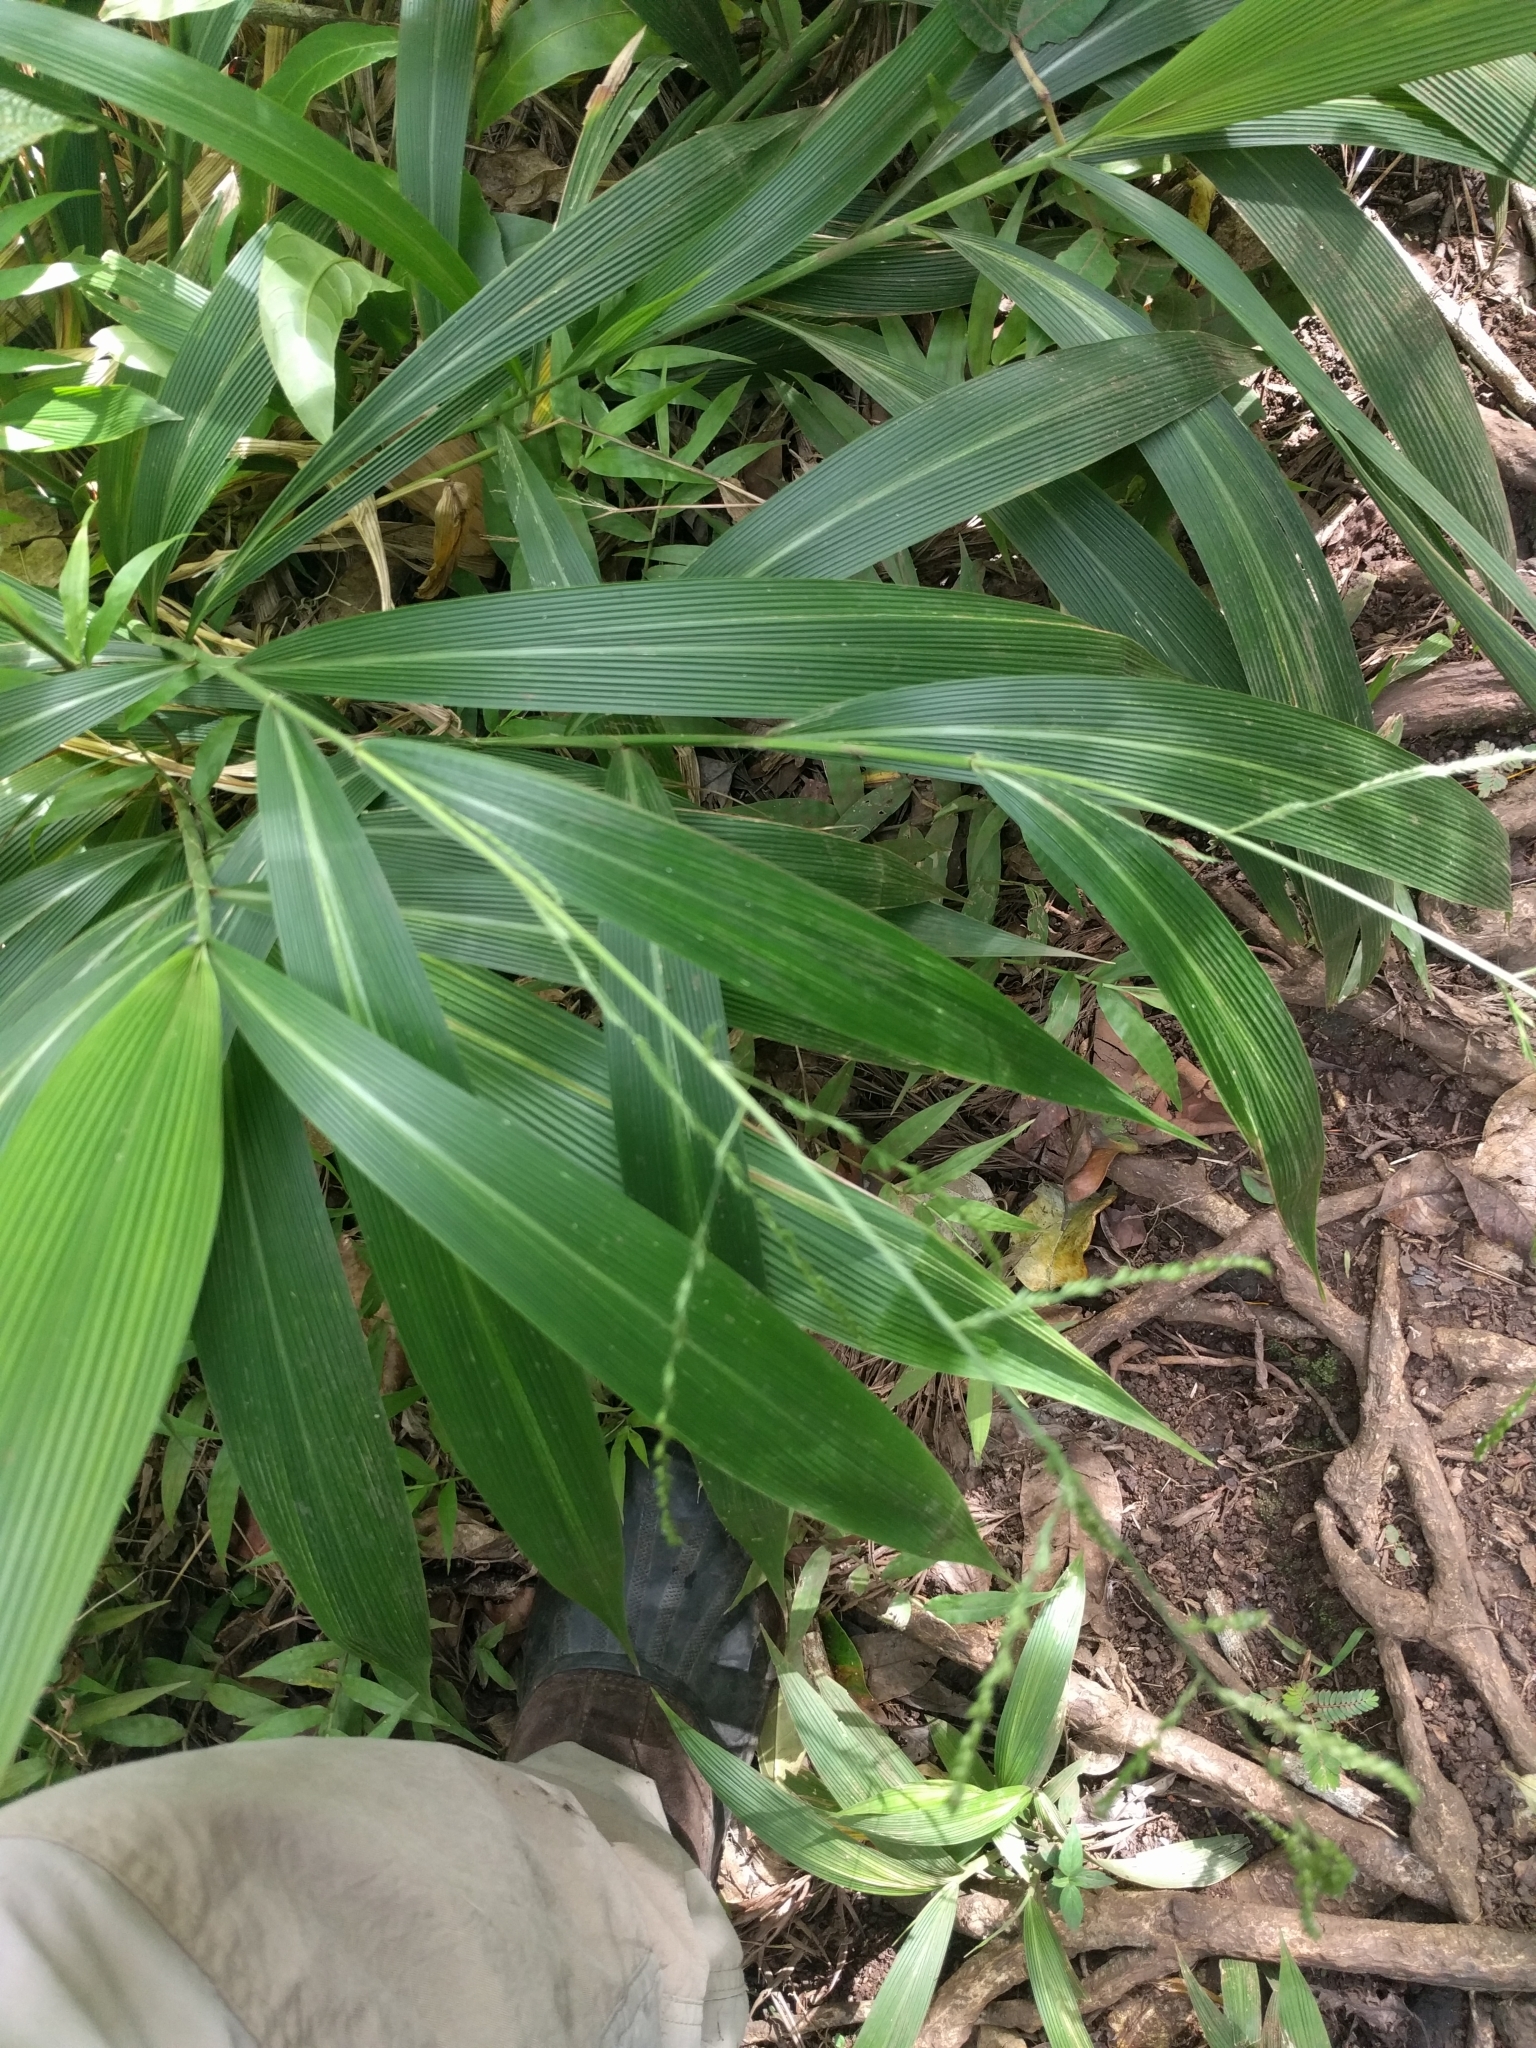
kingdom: Plantae
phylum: Tracheophyta
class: Liliopsida
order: Poales
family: Poaceae
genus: Setaria
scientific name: Setaria palmifolia
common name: Broadleaved bristlegrass
